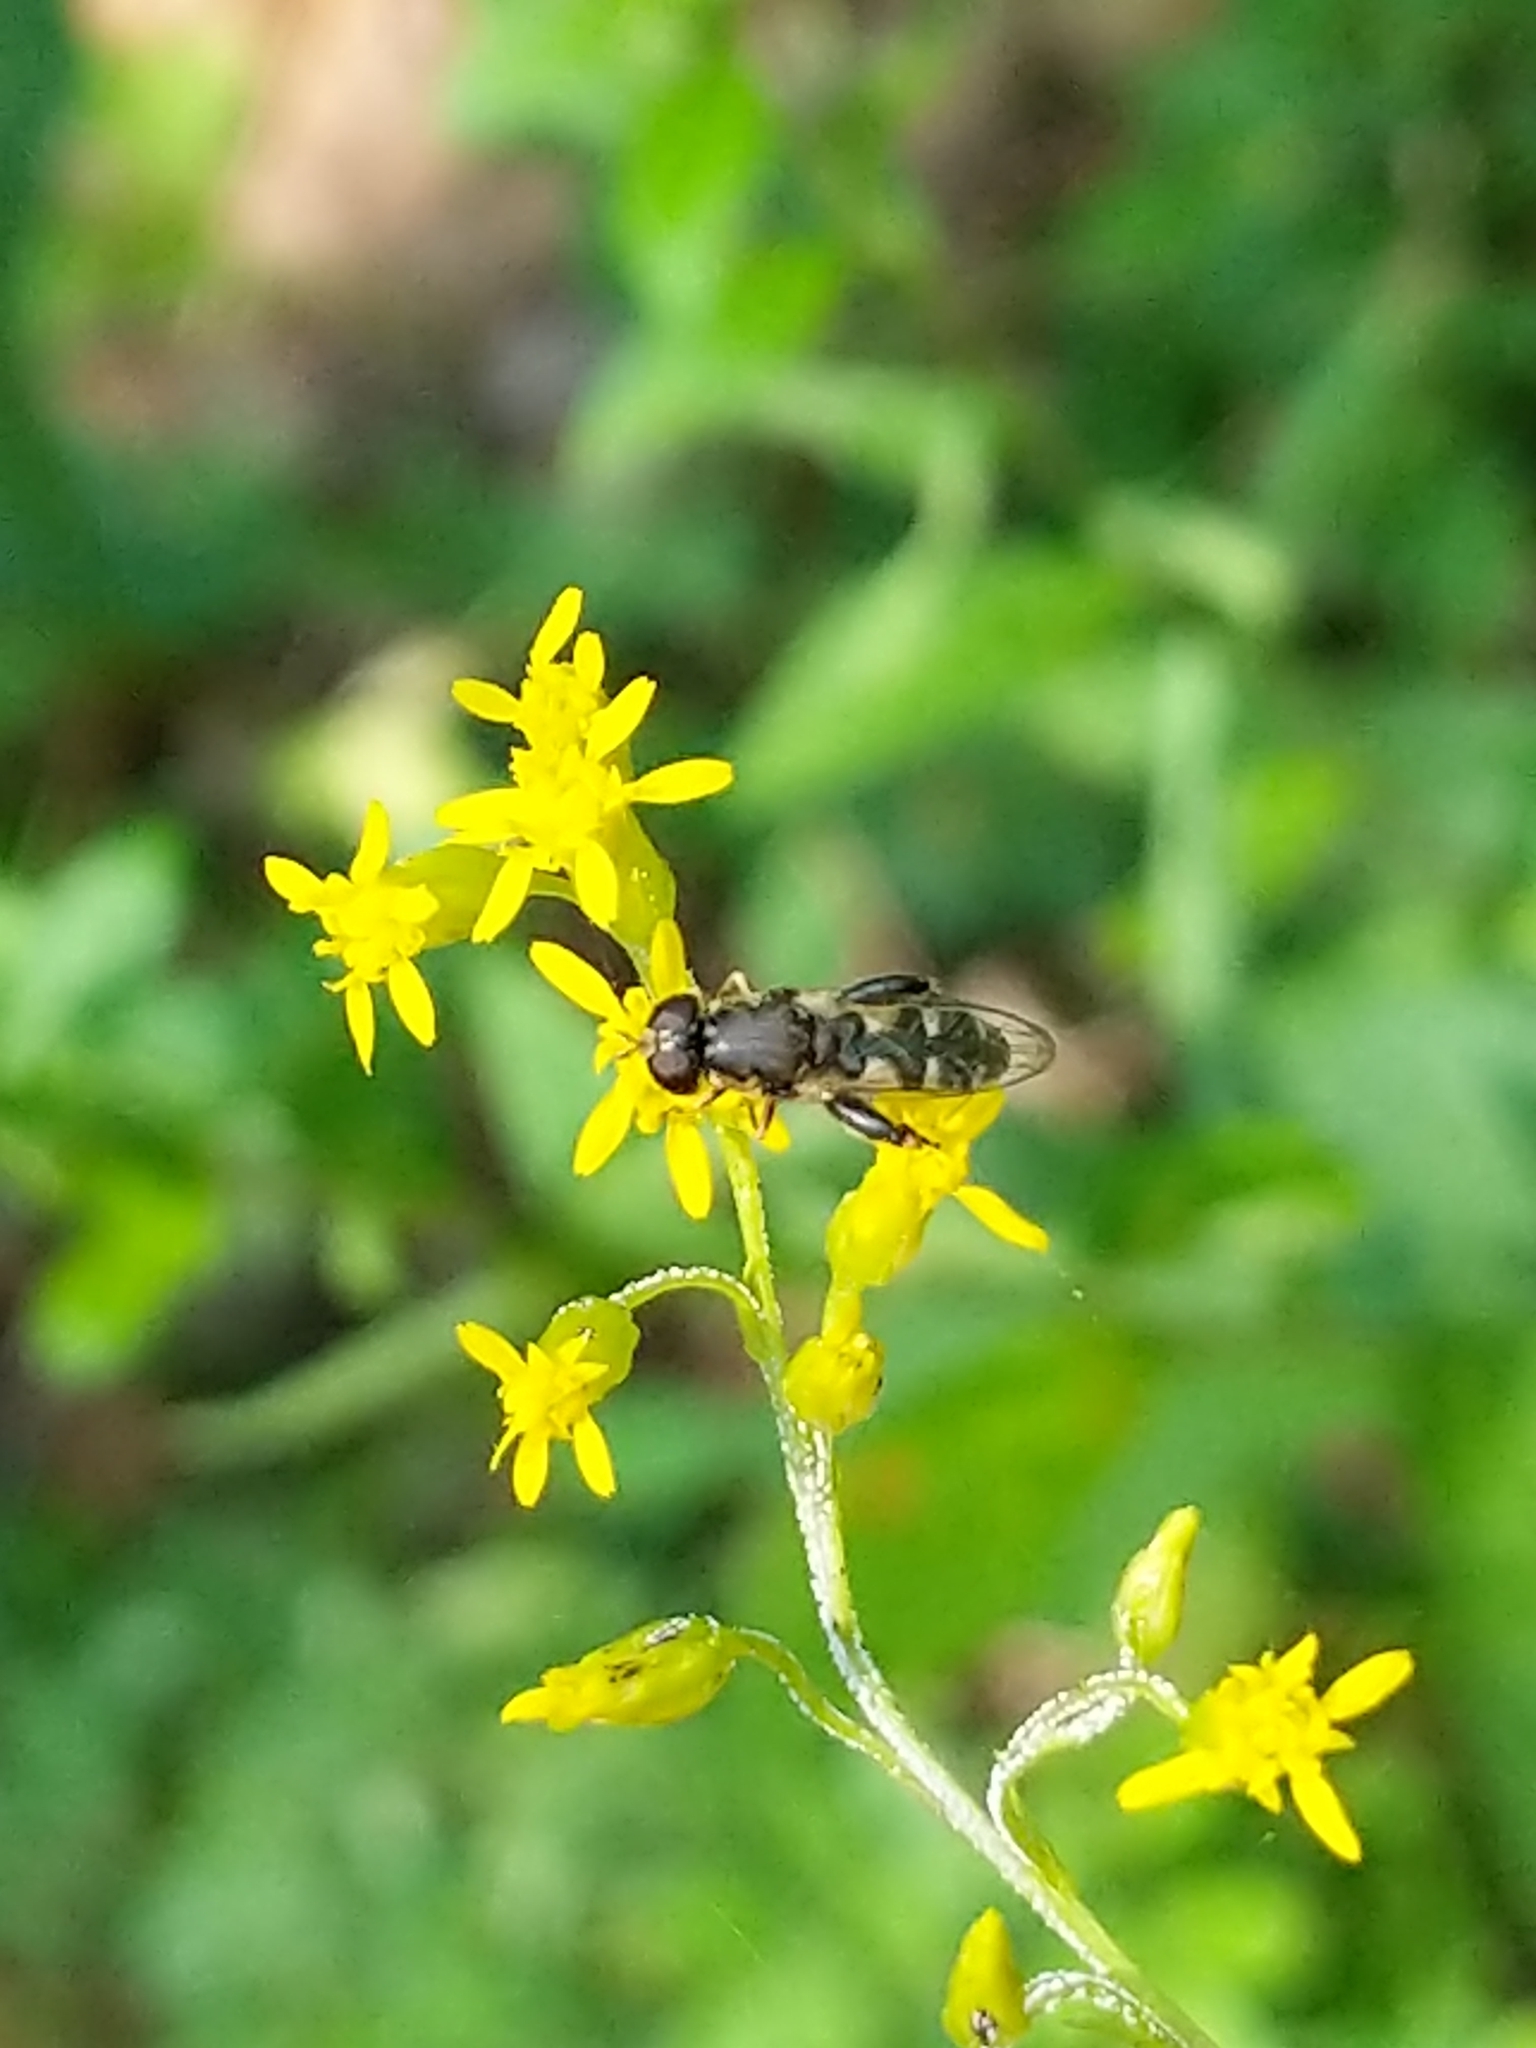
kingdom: Animalia
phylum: Arthropoda
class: Insecta
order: Diptera
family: Syrphidae
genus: Syritta
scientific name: Syritta pipiens
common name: Hover fly
